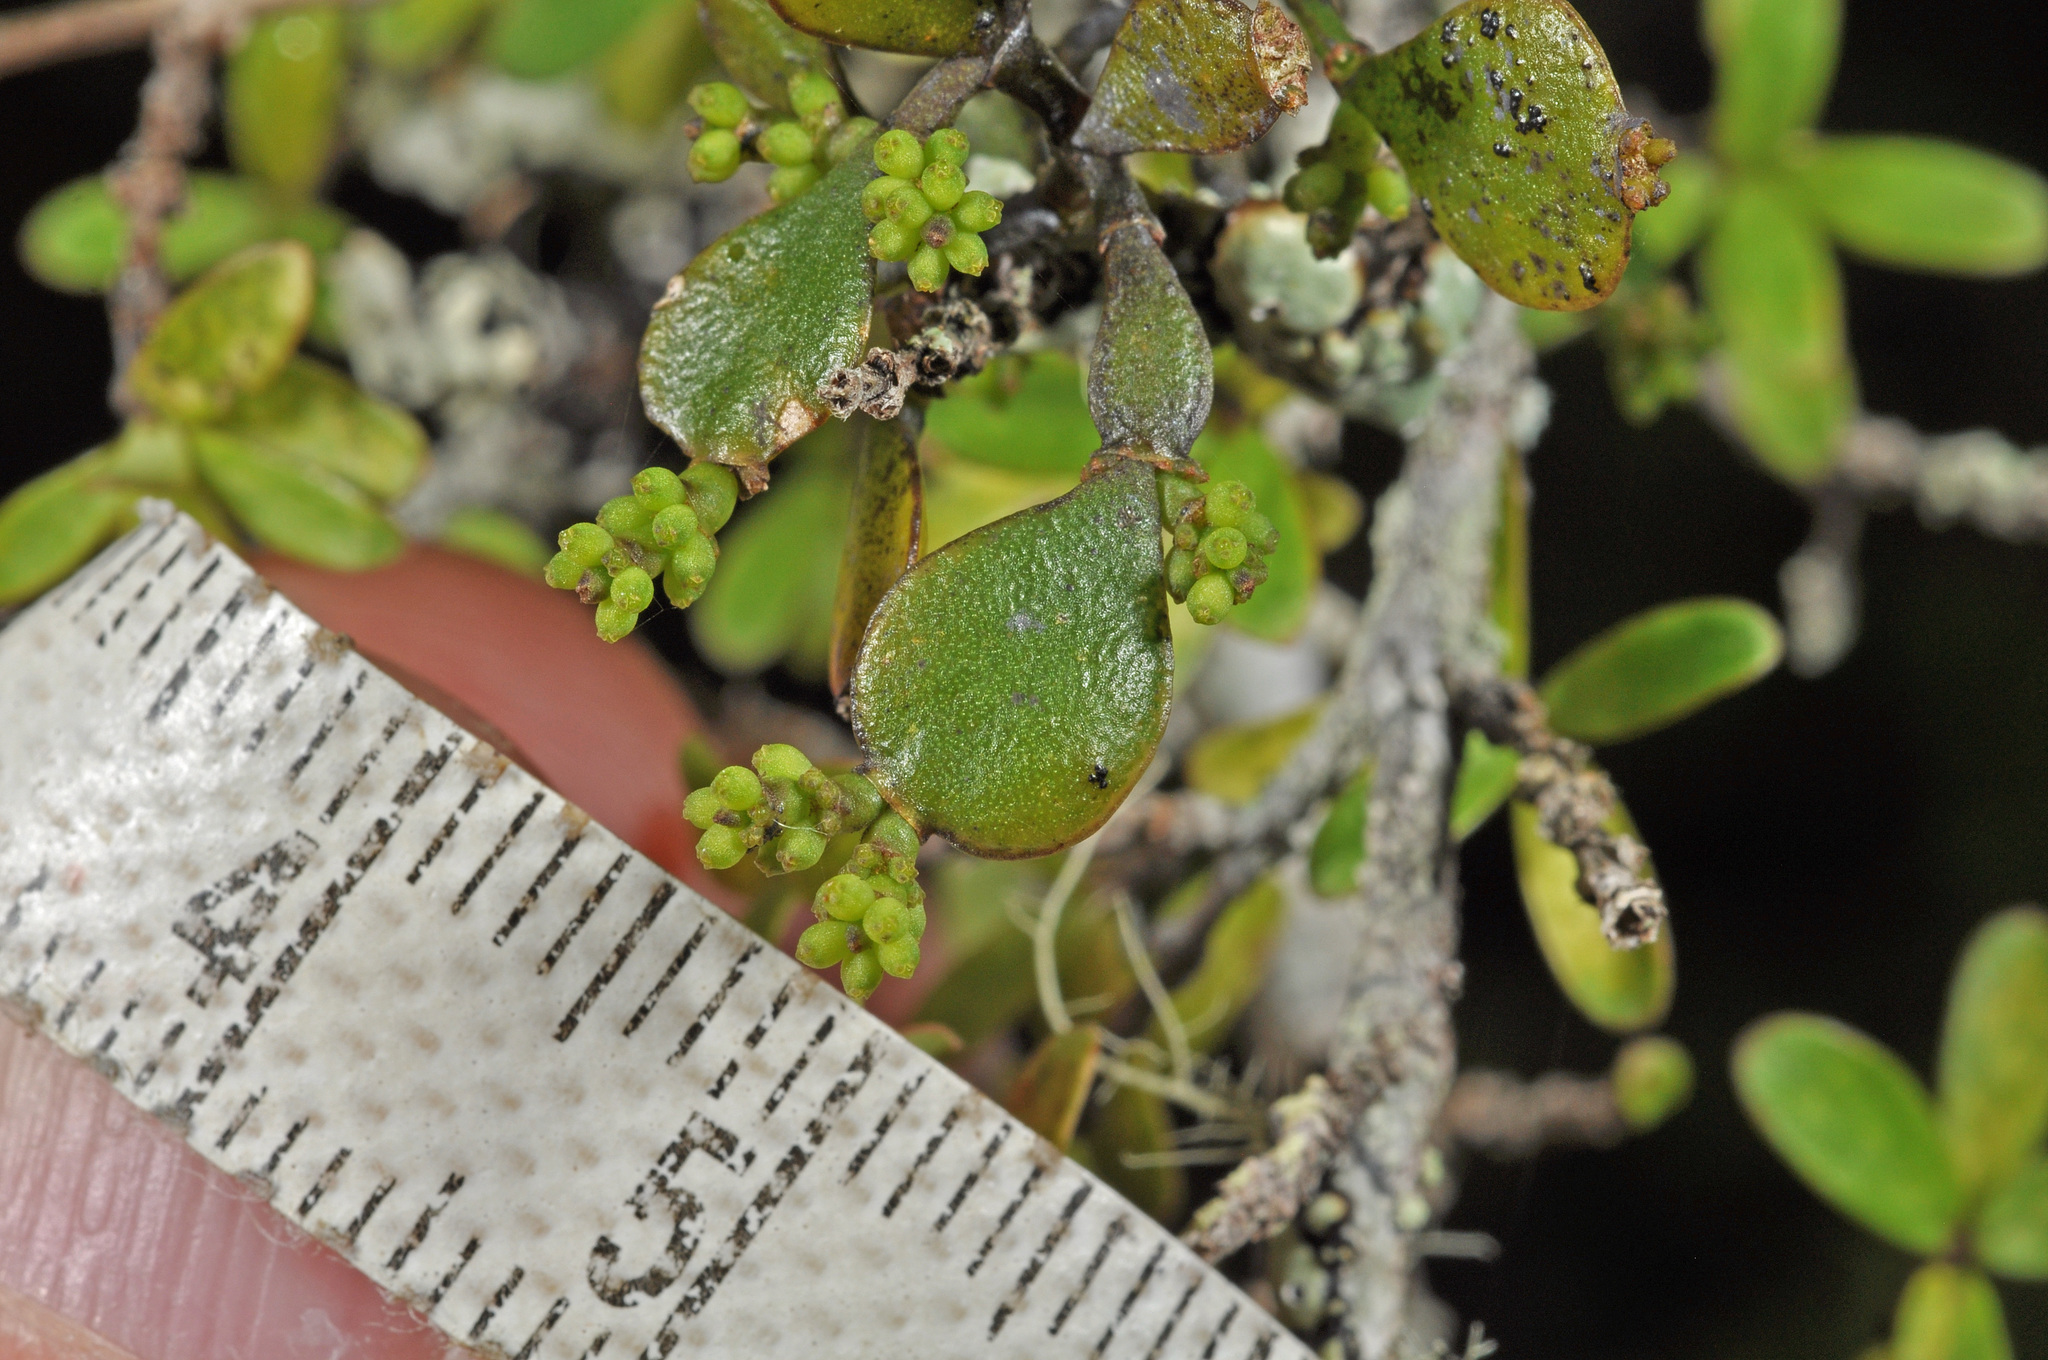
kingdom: Plantae
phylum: Tracheophyta
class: Magnoliopsida
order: Santalales
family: Viscaceae
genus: Korthalsella
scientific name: Korthalsella lindsayi
